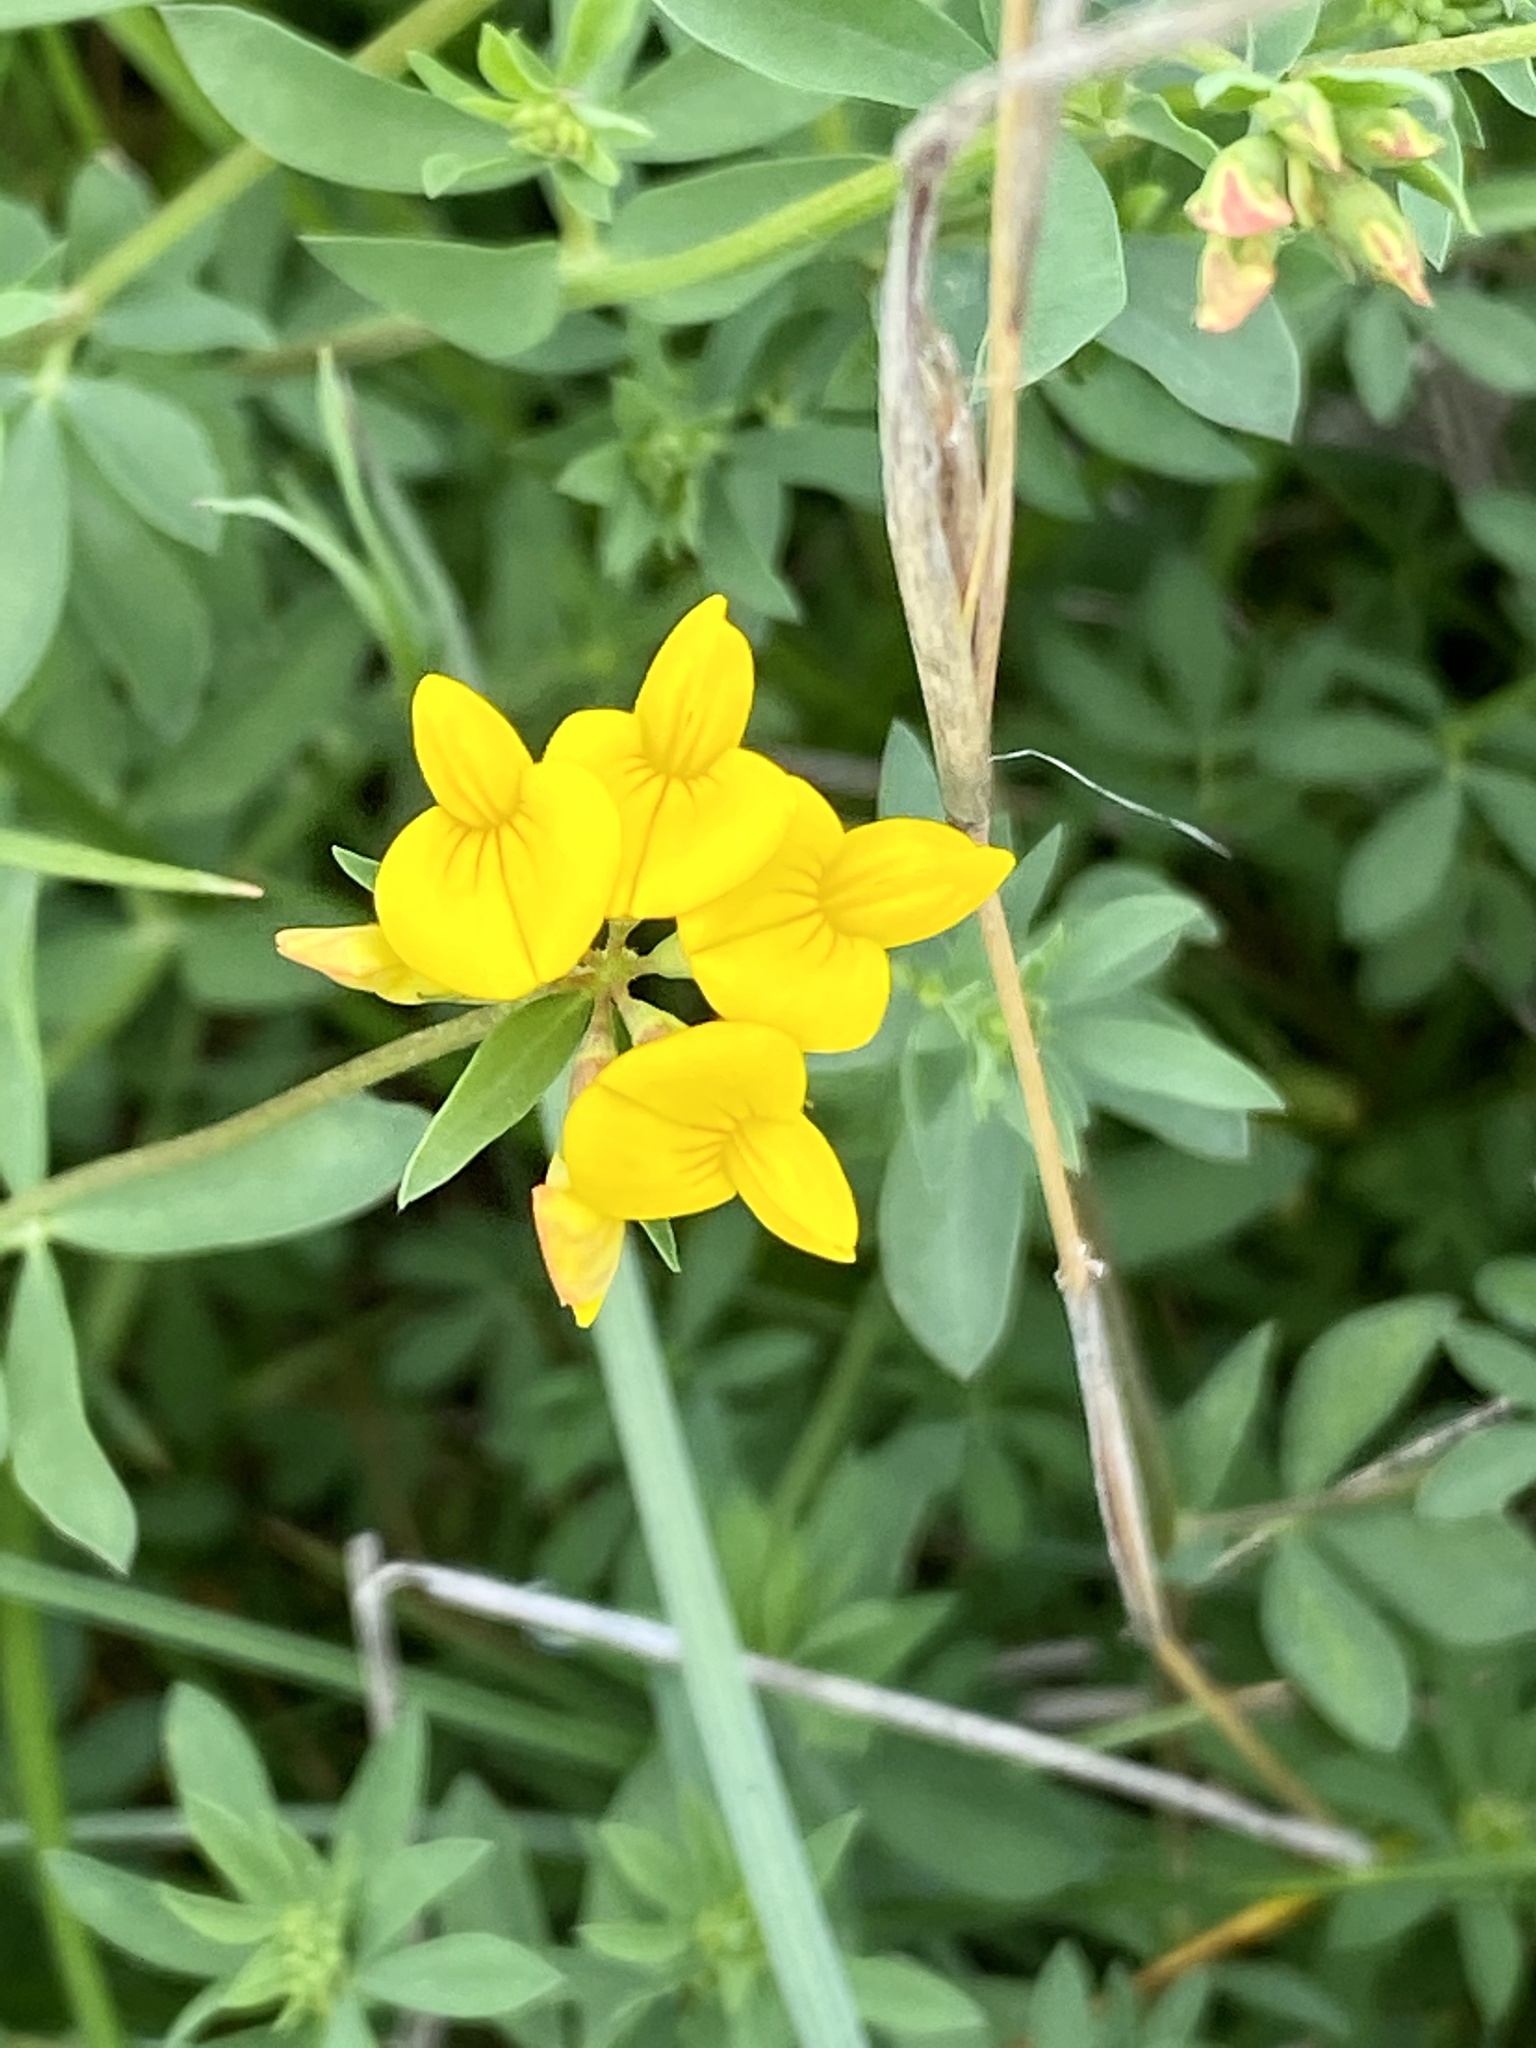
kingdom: Plantae
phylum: Tracheophyta
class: Magnoliopsida
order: Fabales
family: Fabaceae
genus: Lotus
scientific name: Lotus corniculatus
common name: Common bird's-foot-trefoil
